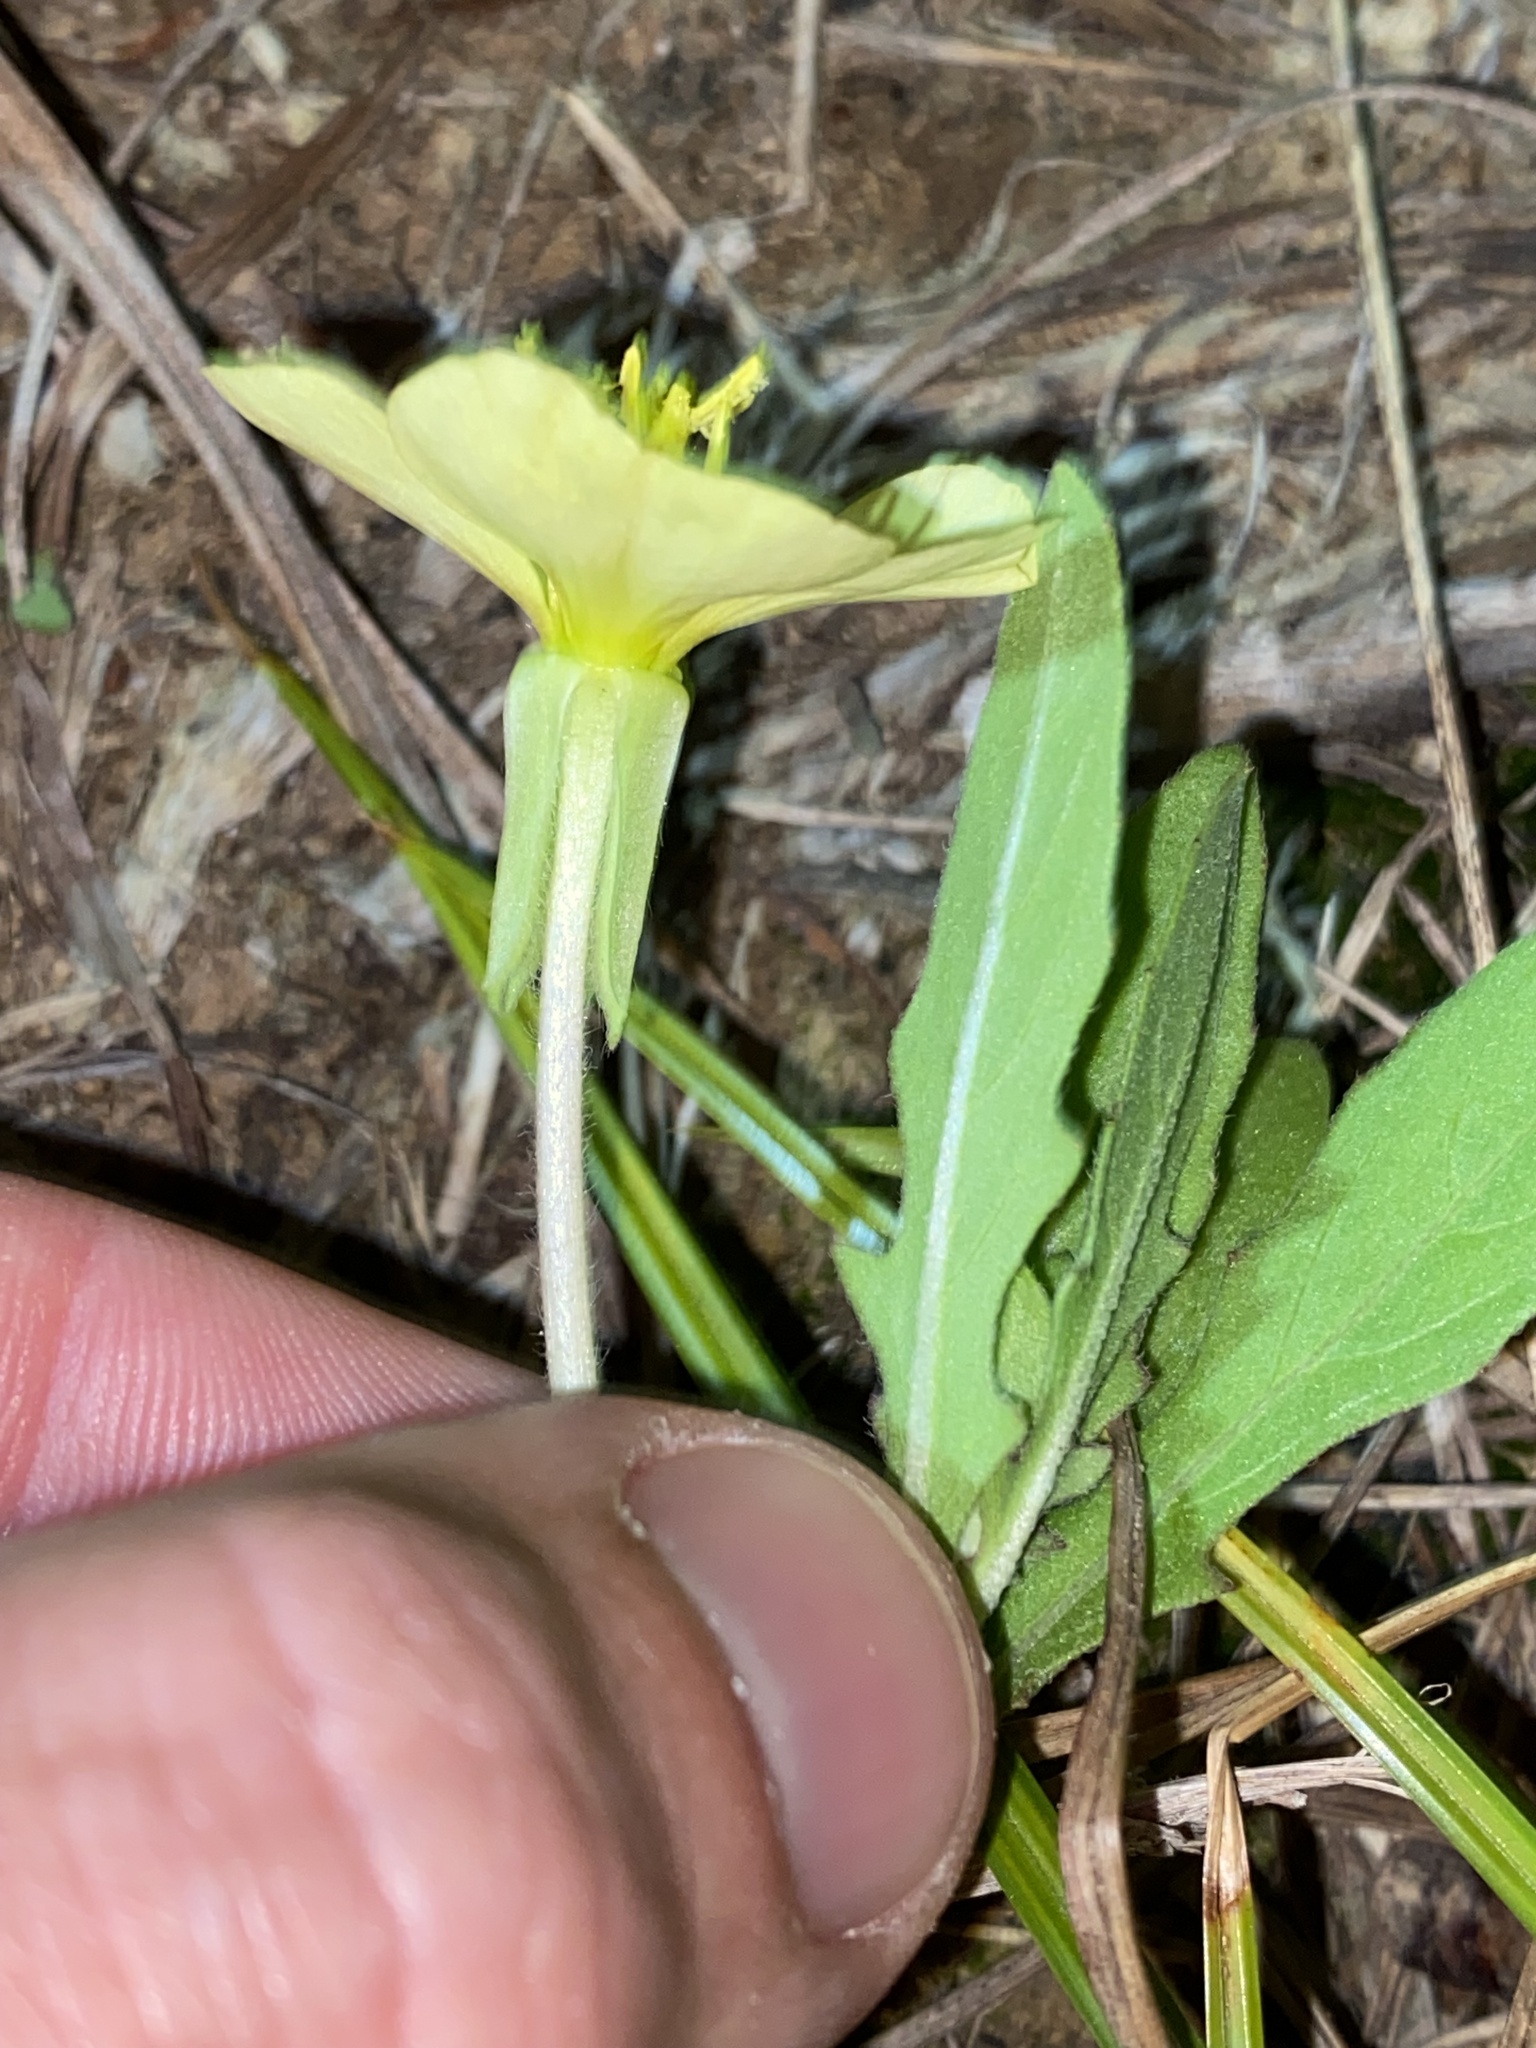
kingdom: Plantae
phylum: Tracheophyta
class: Magnoliopsida
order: Myrtales
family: Onagraceae
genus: Oenothera
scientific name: Oenothera laciniata
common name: Cut-leaved evening-primrose
